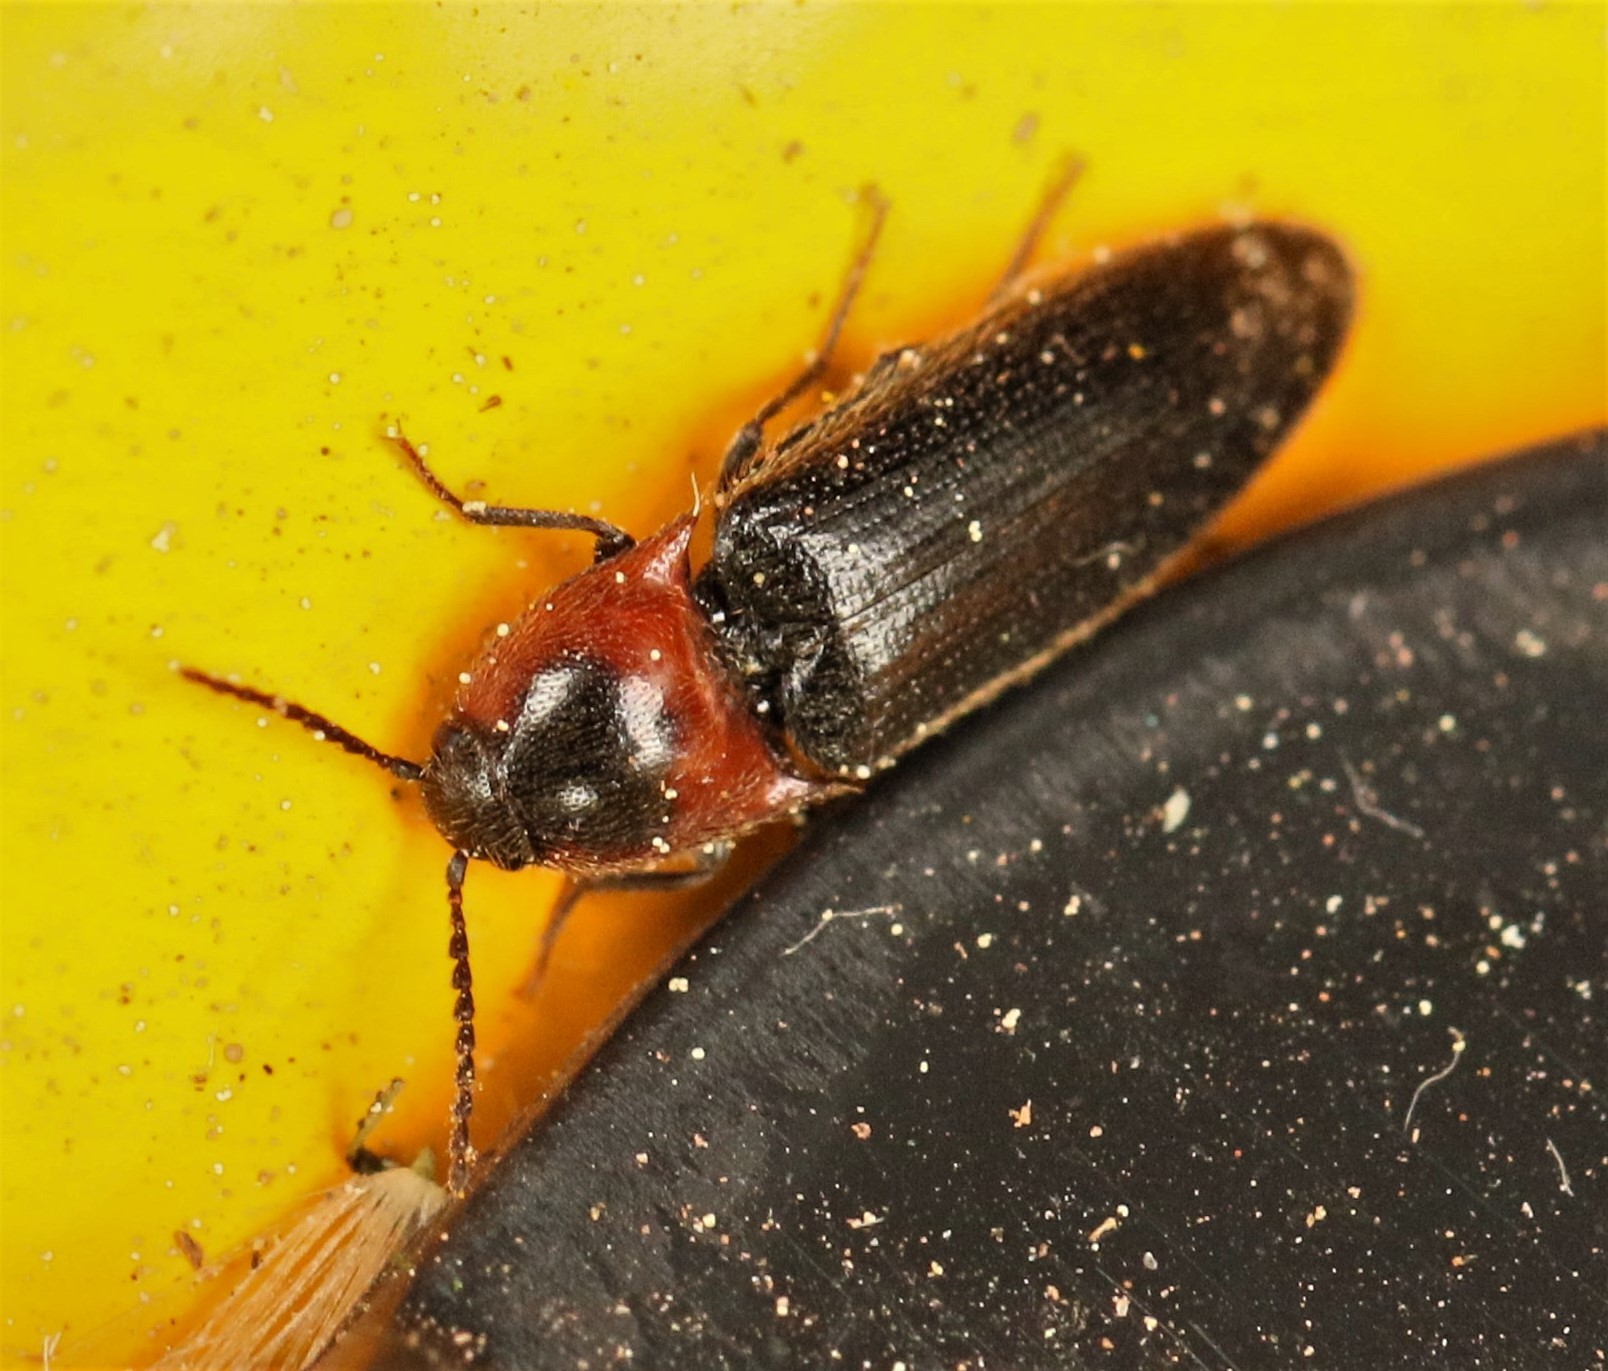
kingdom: Animalia
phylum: Arthropoda
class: Insecta
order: Coleoptera
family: Elateridae
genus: Ampedus
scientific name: Ampedus rubricus
